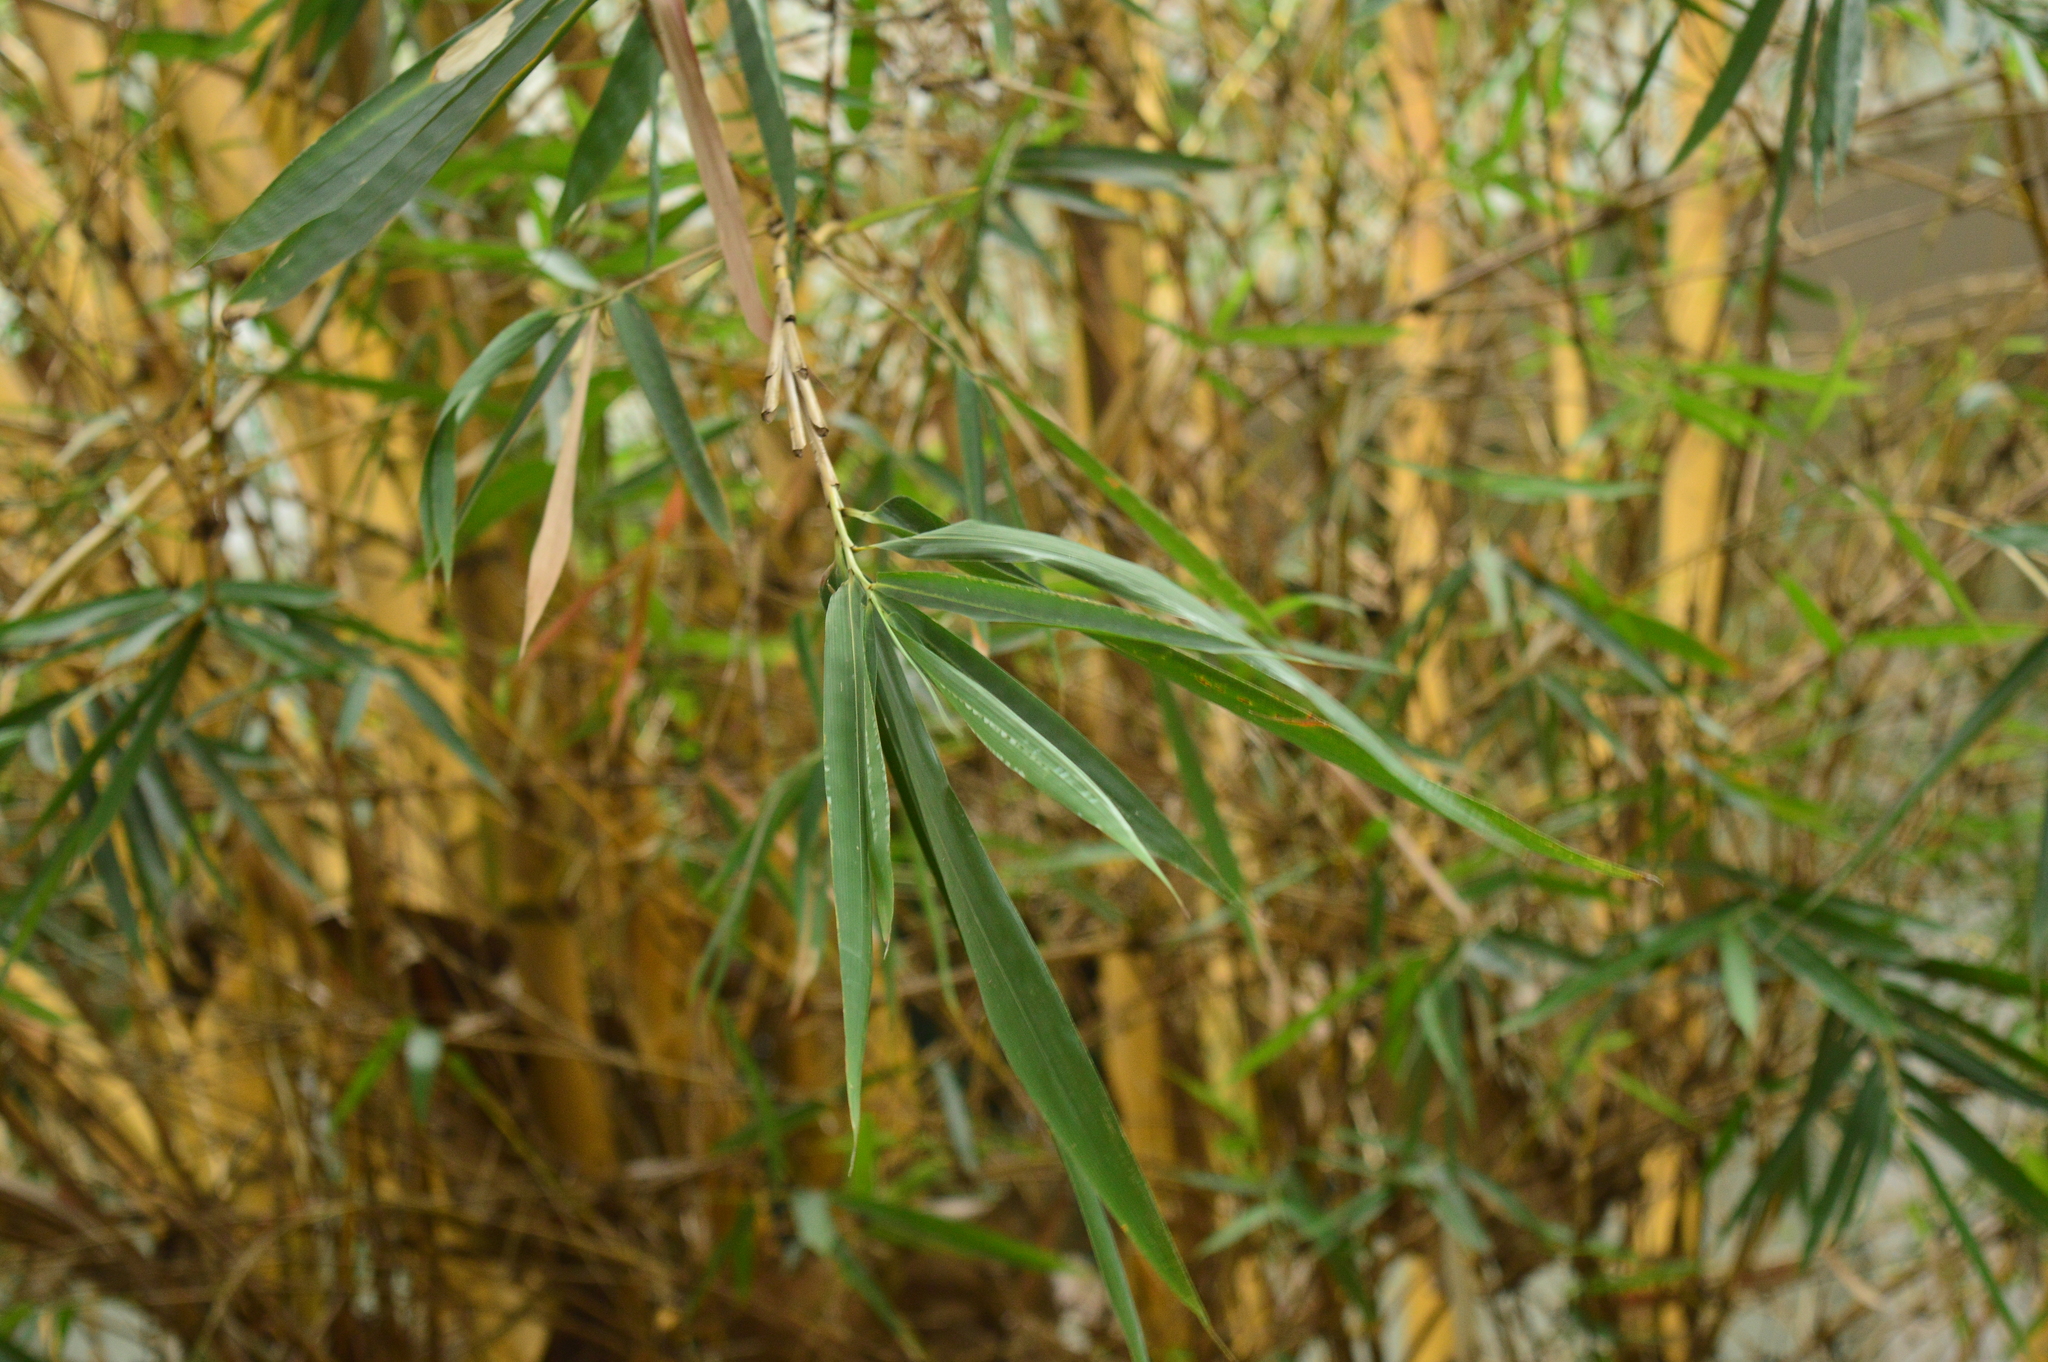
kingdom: Plantae
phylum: Tracheophyta
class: Liliopsida
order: Poales
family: Poaceae
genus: Bambusa
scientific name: Bambusa vulgaris
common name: Common bamboo
